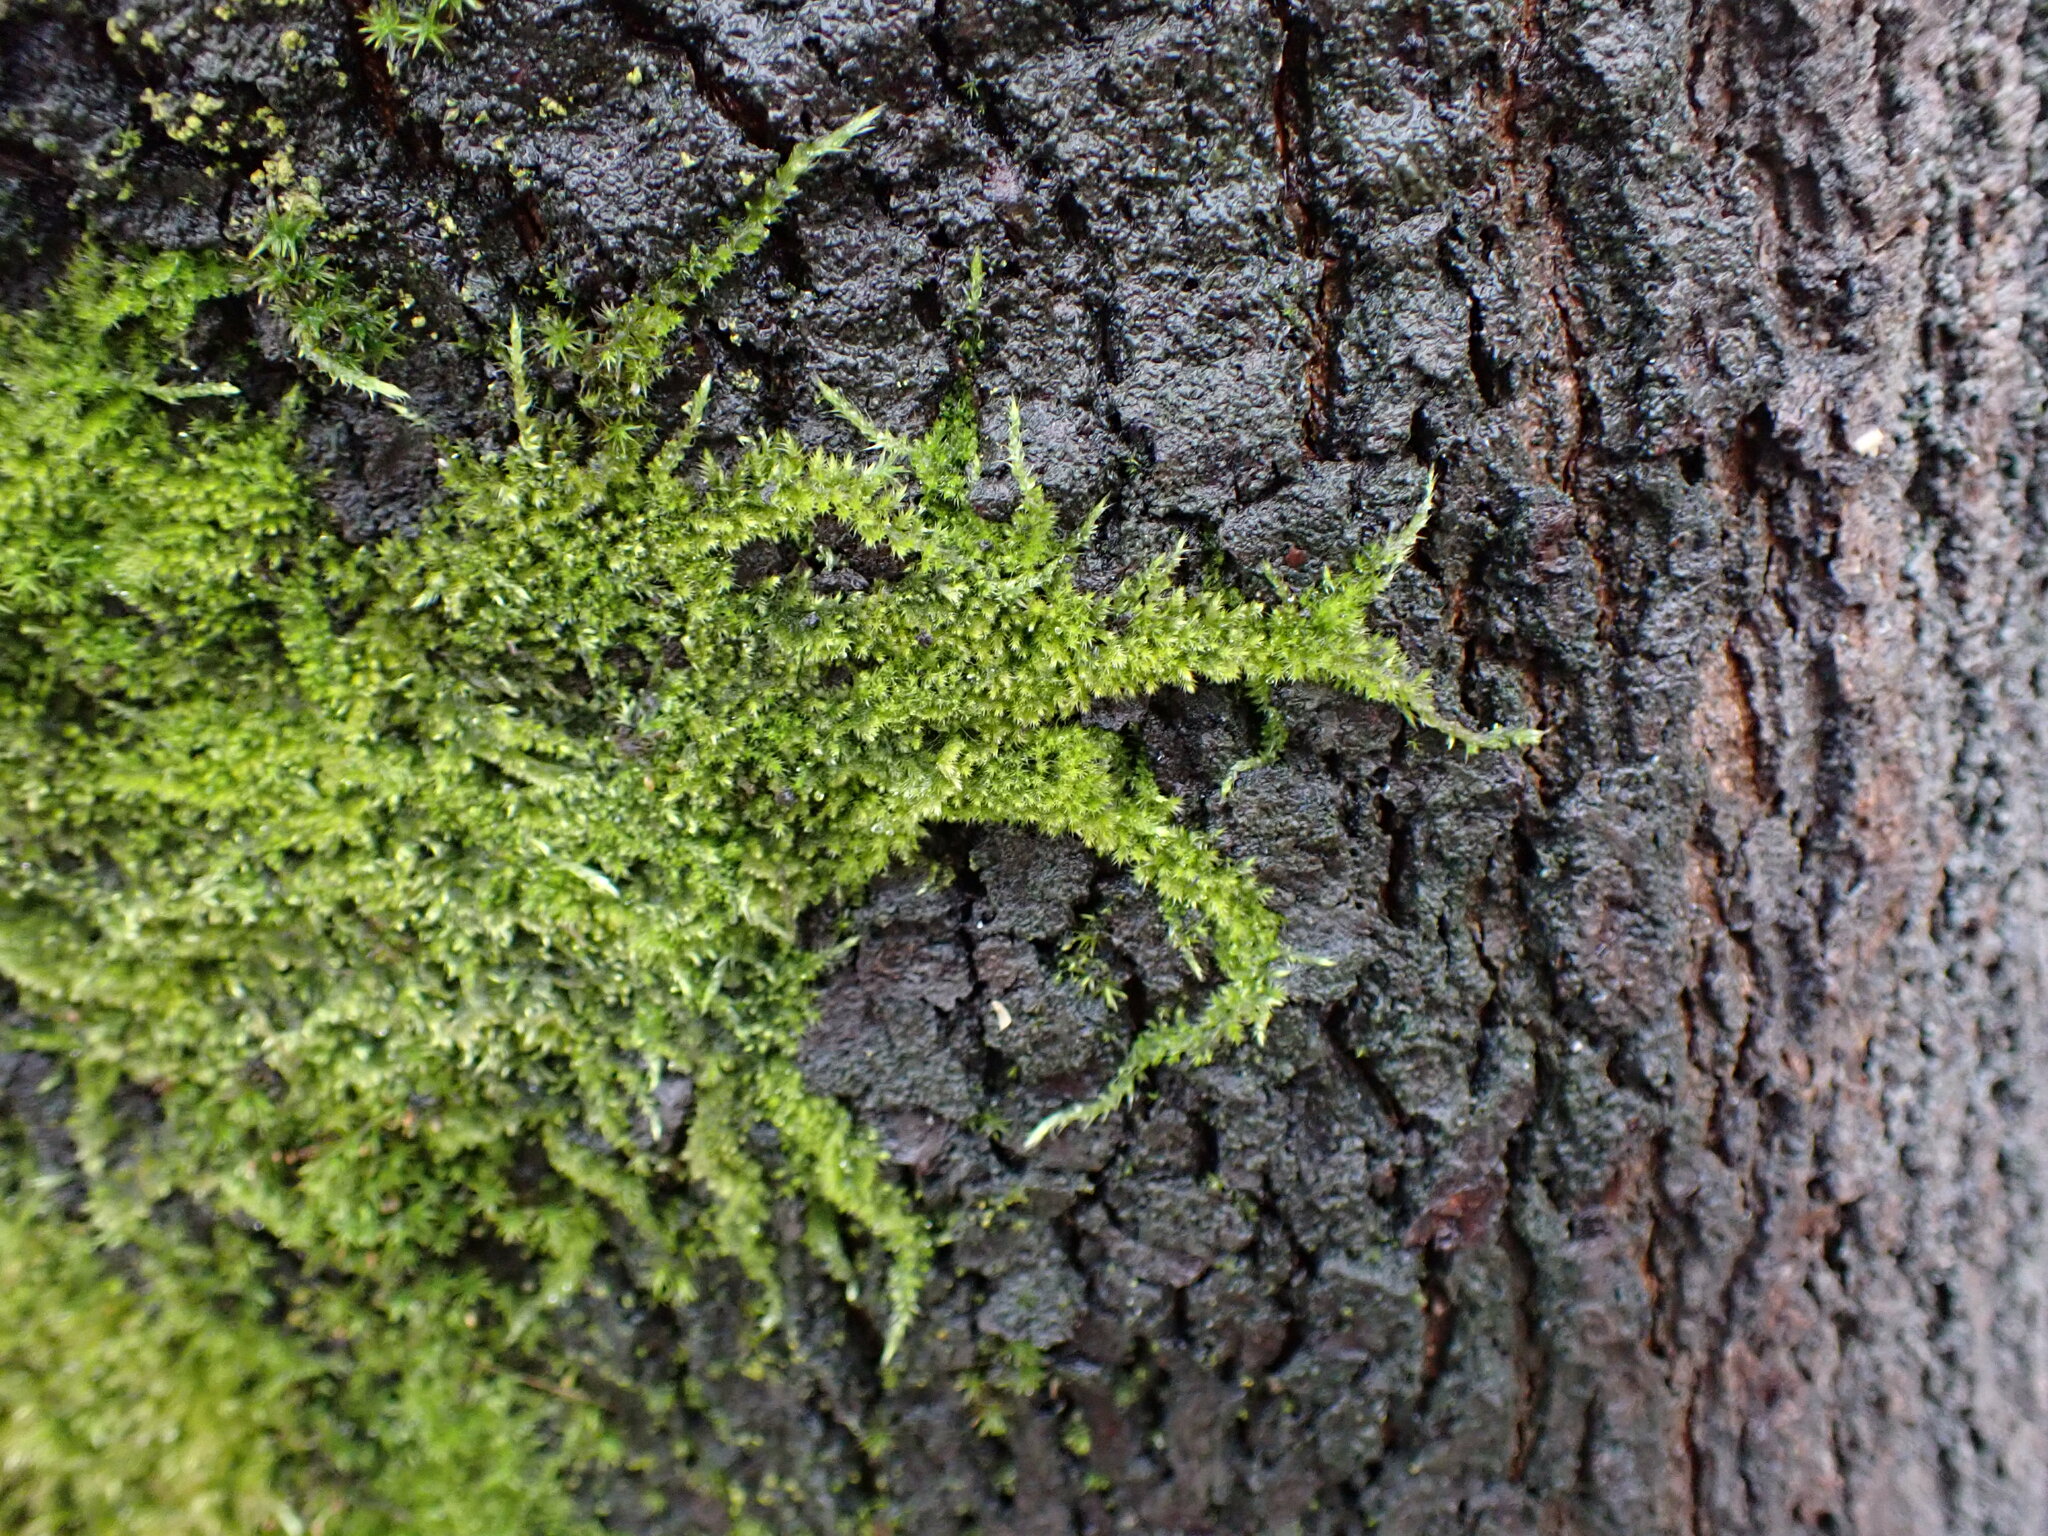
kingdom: Plantae
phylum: Bryophyta
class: Bryopsida
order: Hypnales
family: Brachytheciaceae
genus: Homalothecium
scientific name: Homalothecium nuttallii
